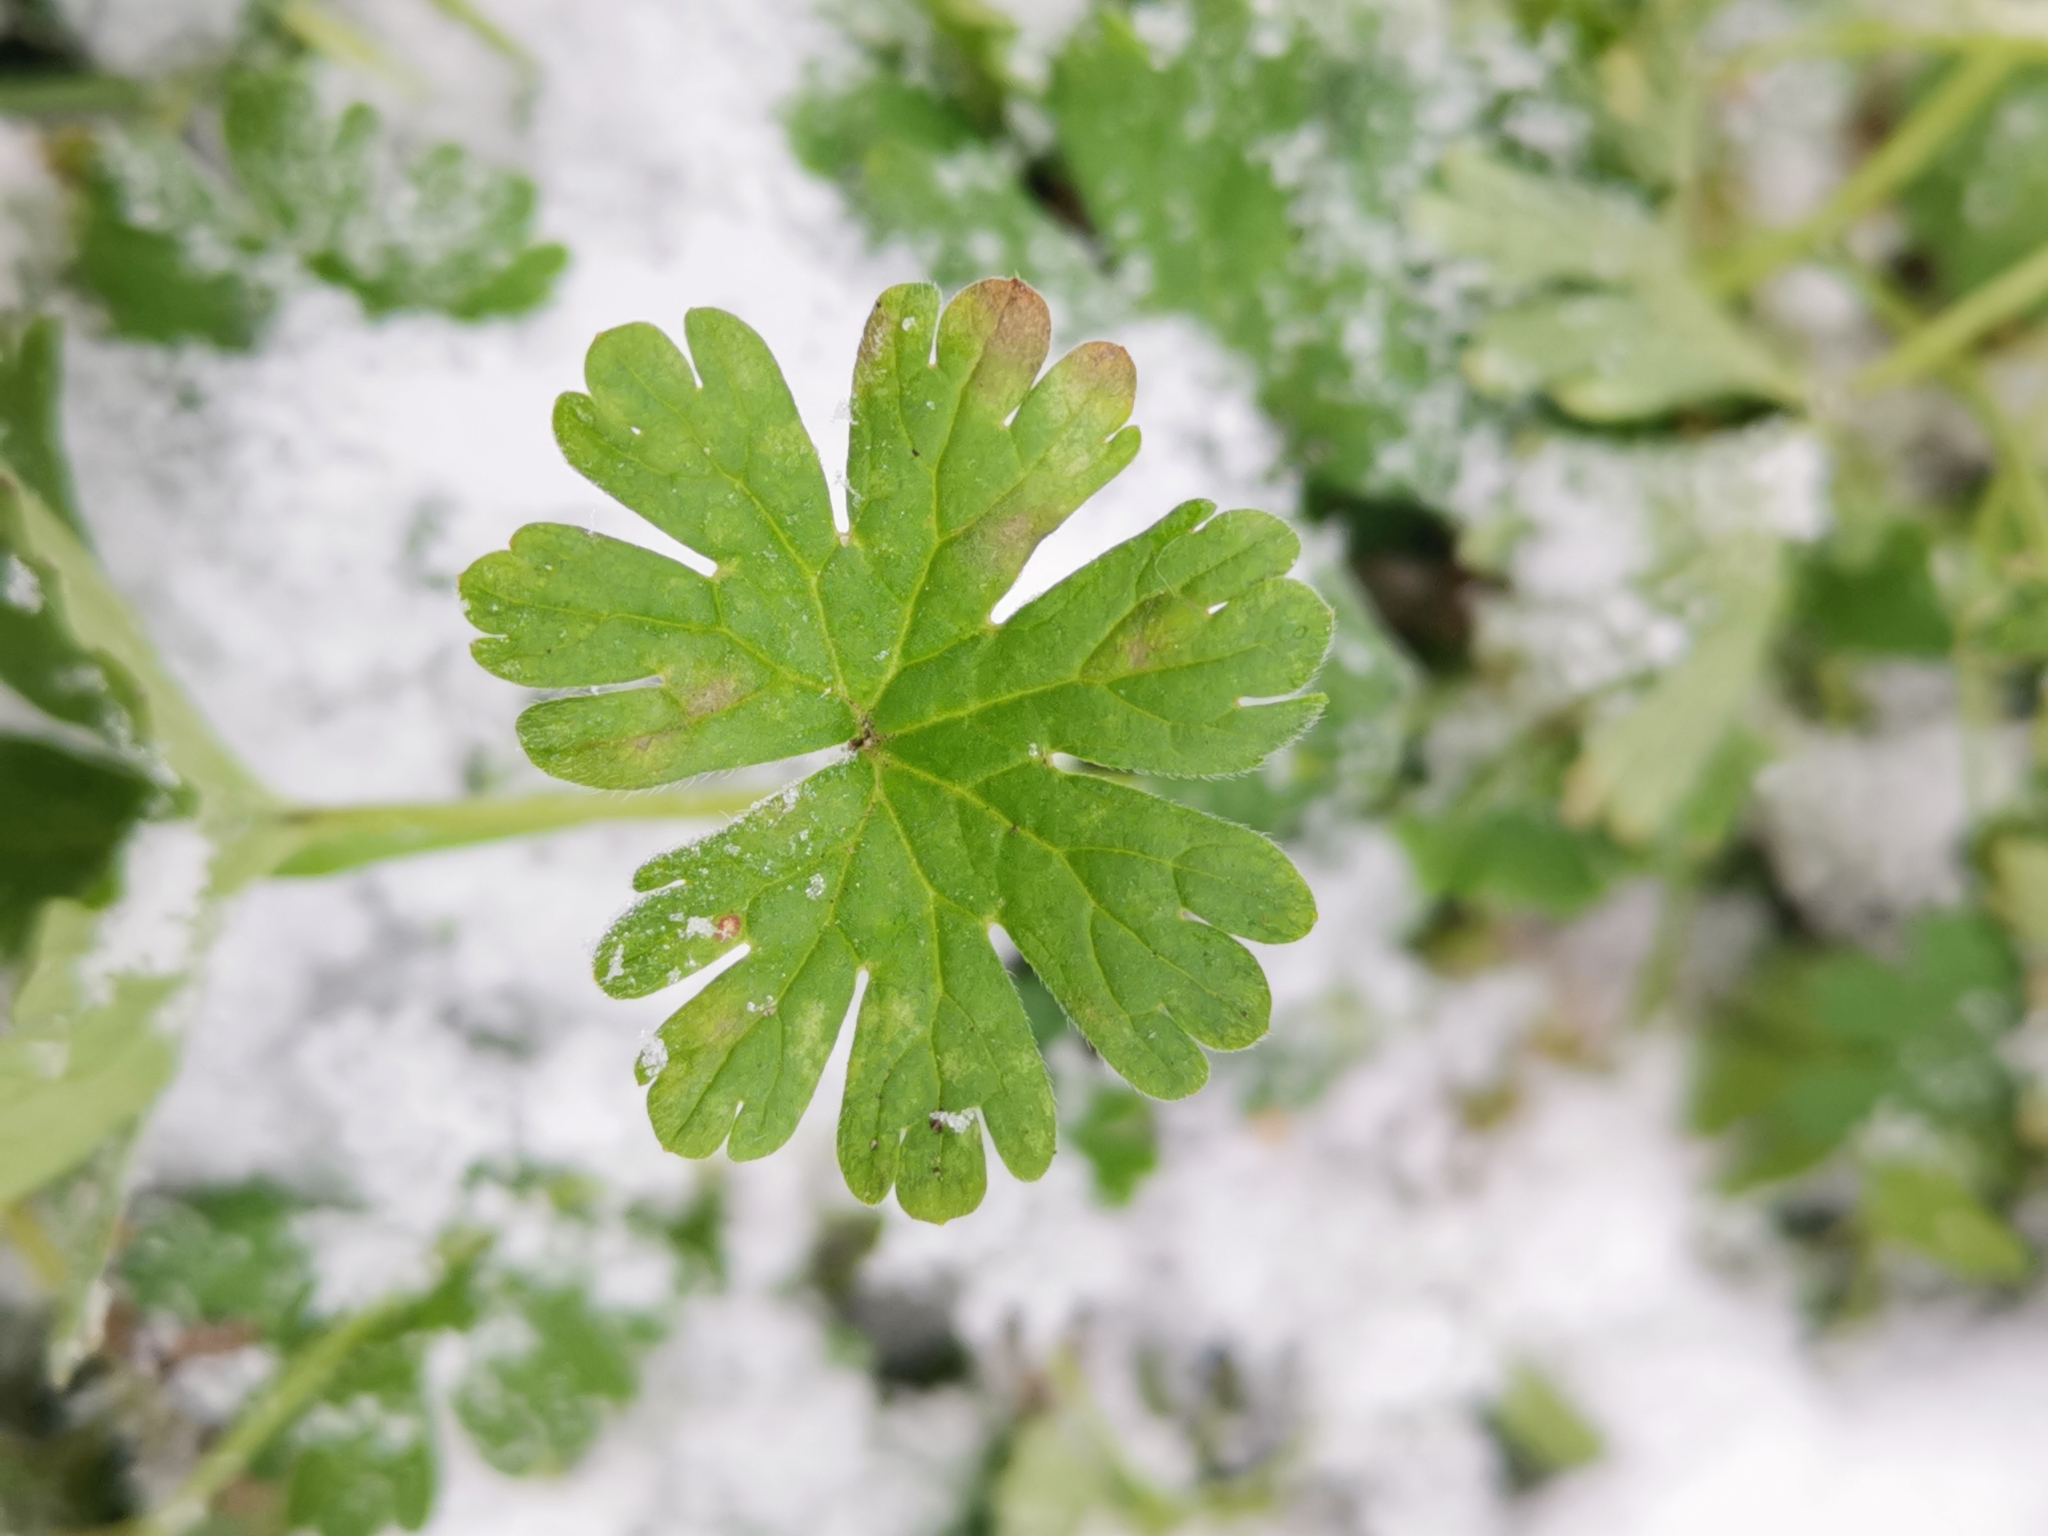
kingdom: Plantae
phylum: Tracheophyta
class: Magnoliopsida
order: Geraniales
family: Geraniaceae
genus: Geranium
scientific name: Geranium pusillum
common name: Small geranium
